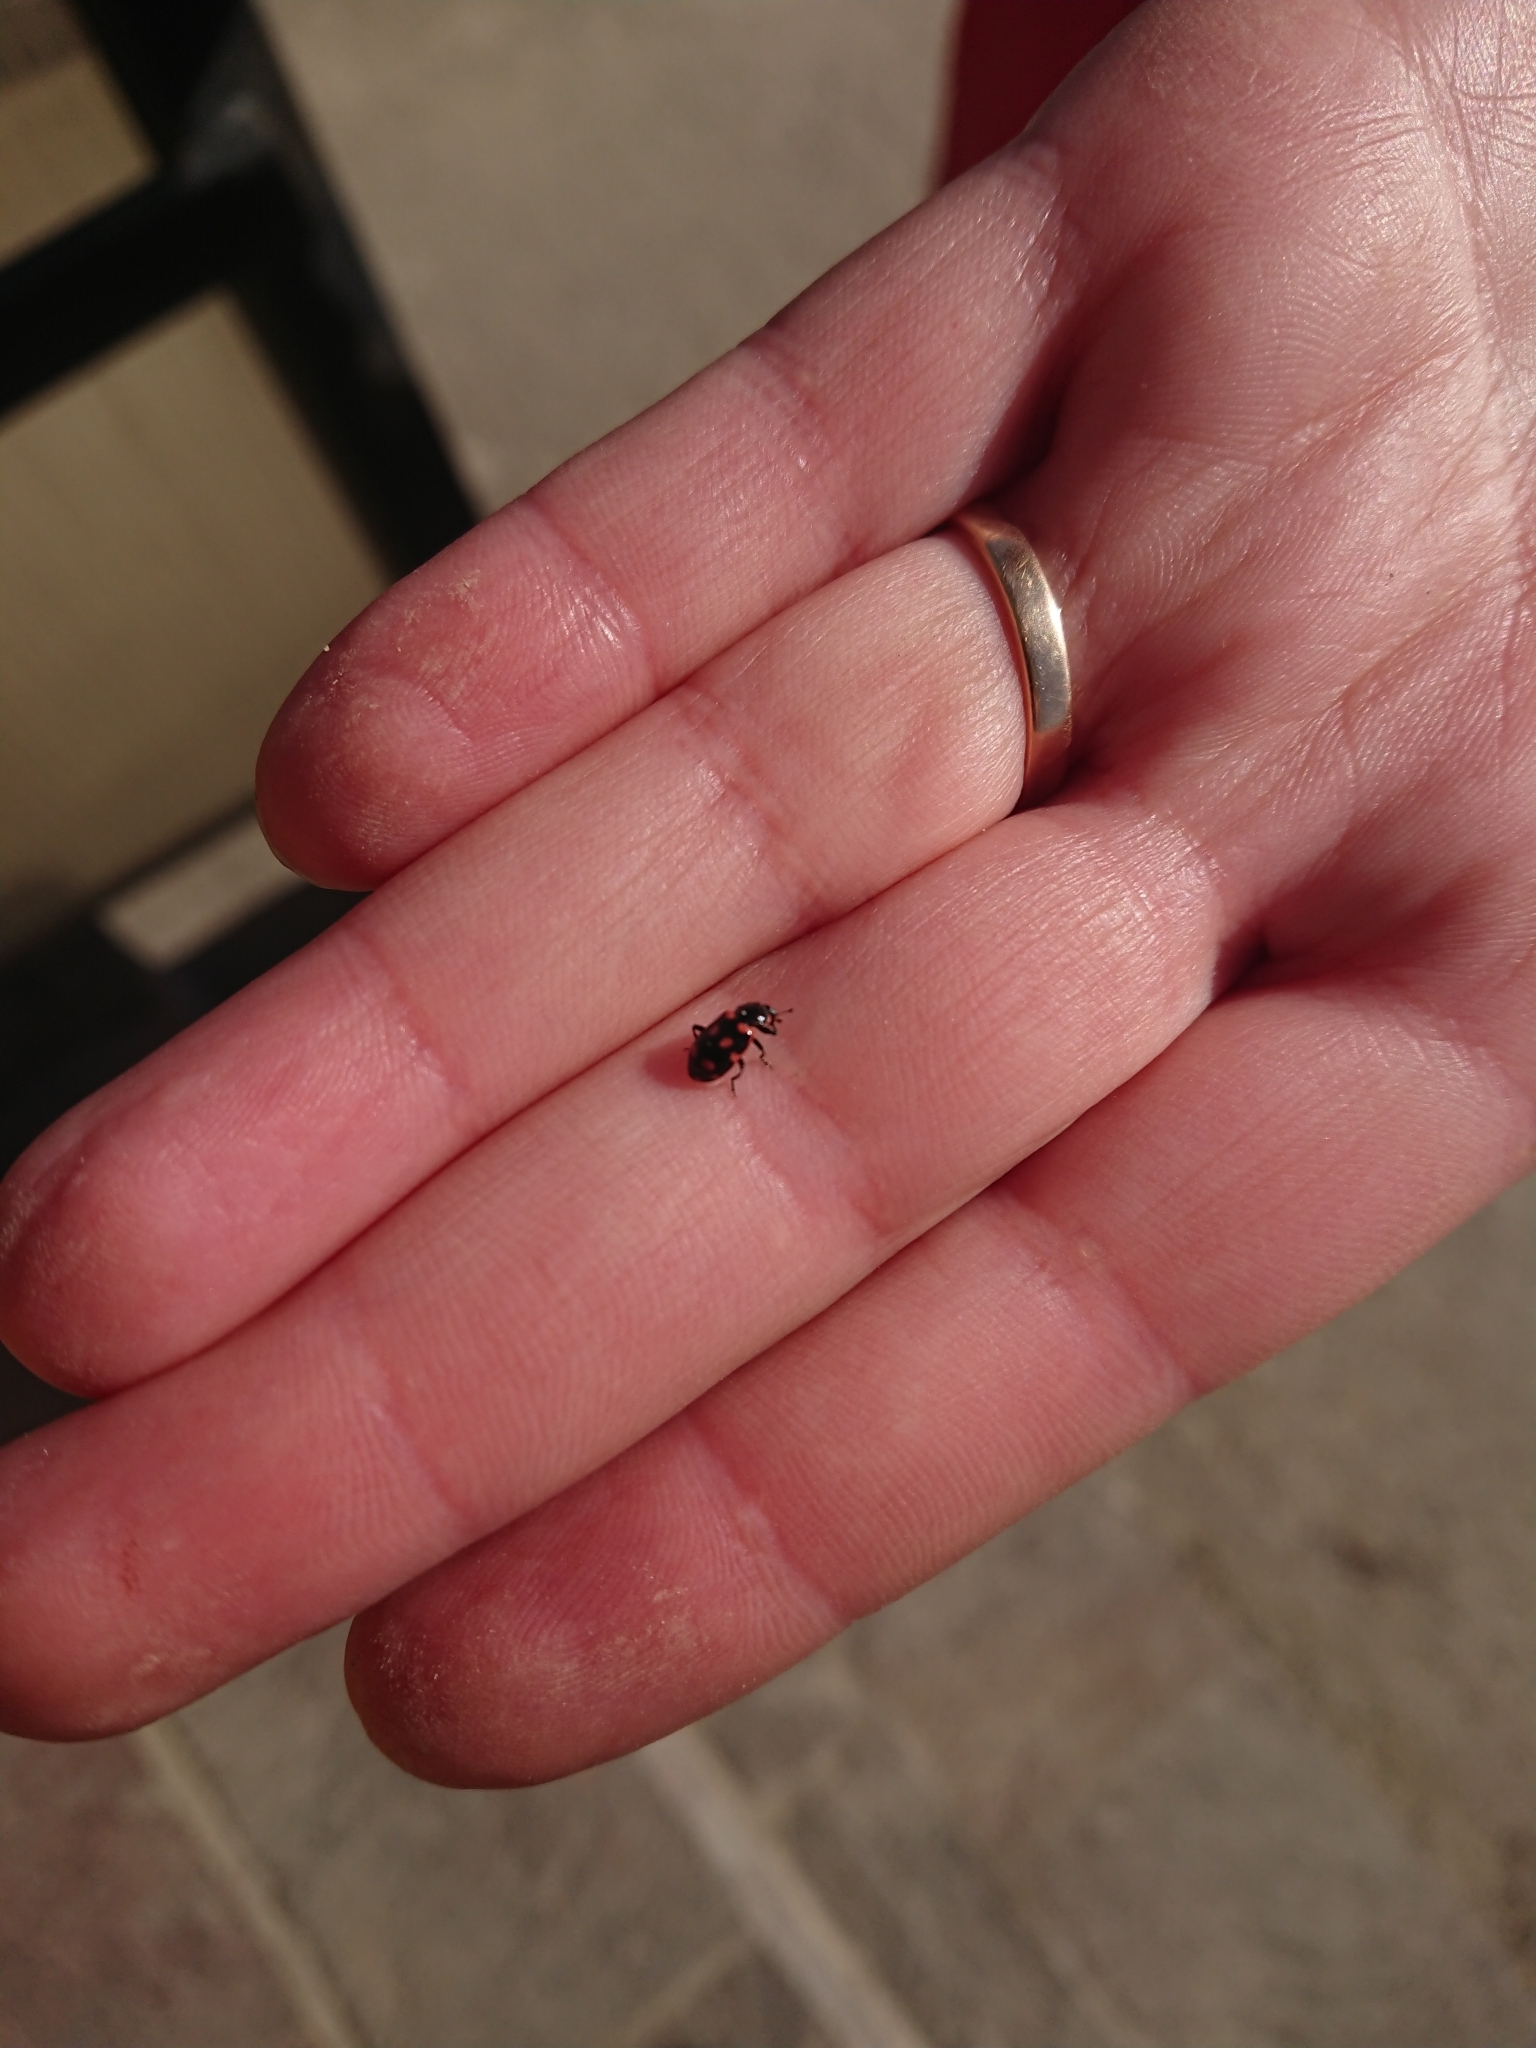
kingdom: Animalia
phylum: Arthropoda
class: Insecta
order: Coleoptera
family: Coccinellidae
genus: Eriopis
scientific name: Eriopis magellanica
